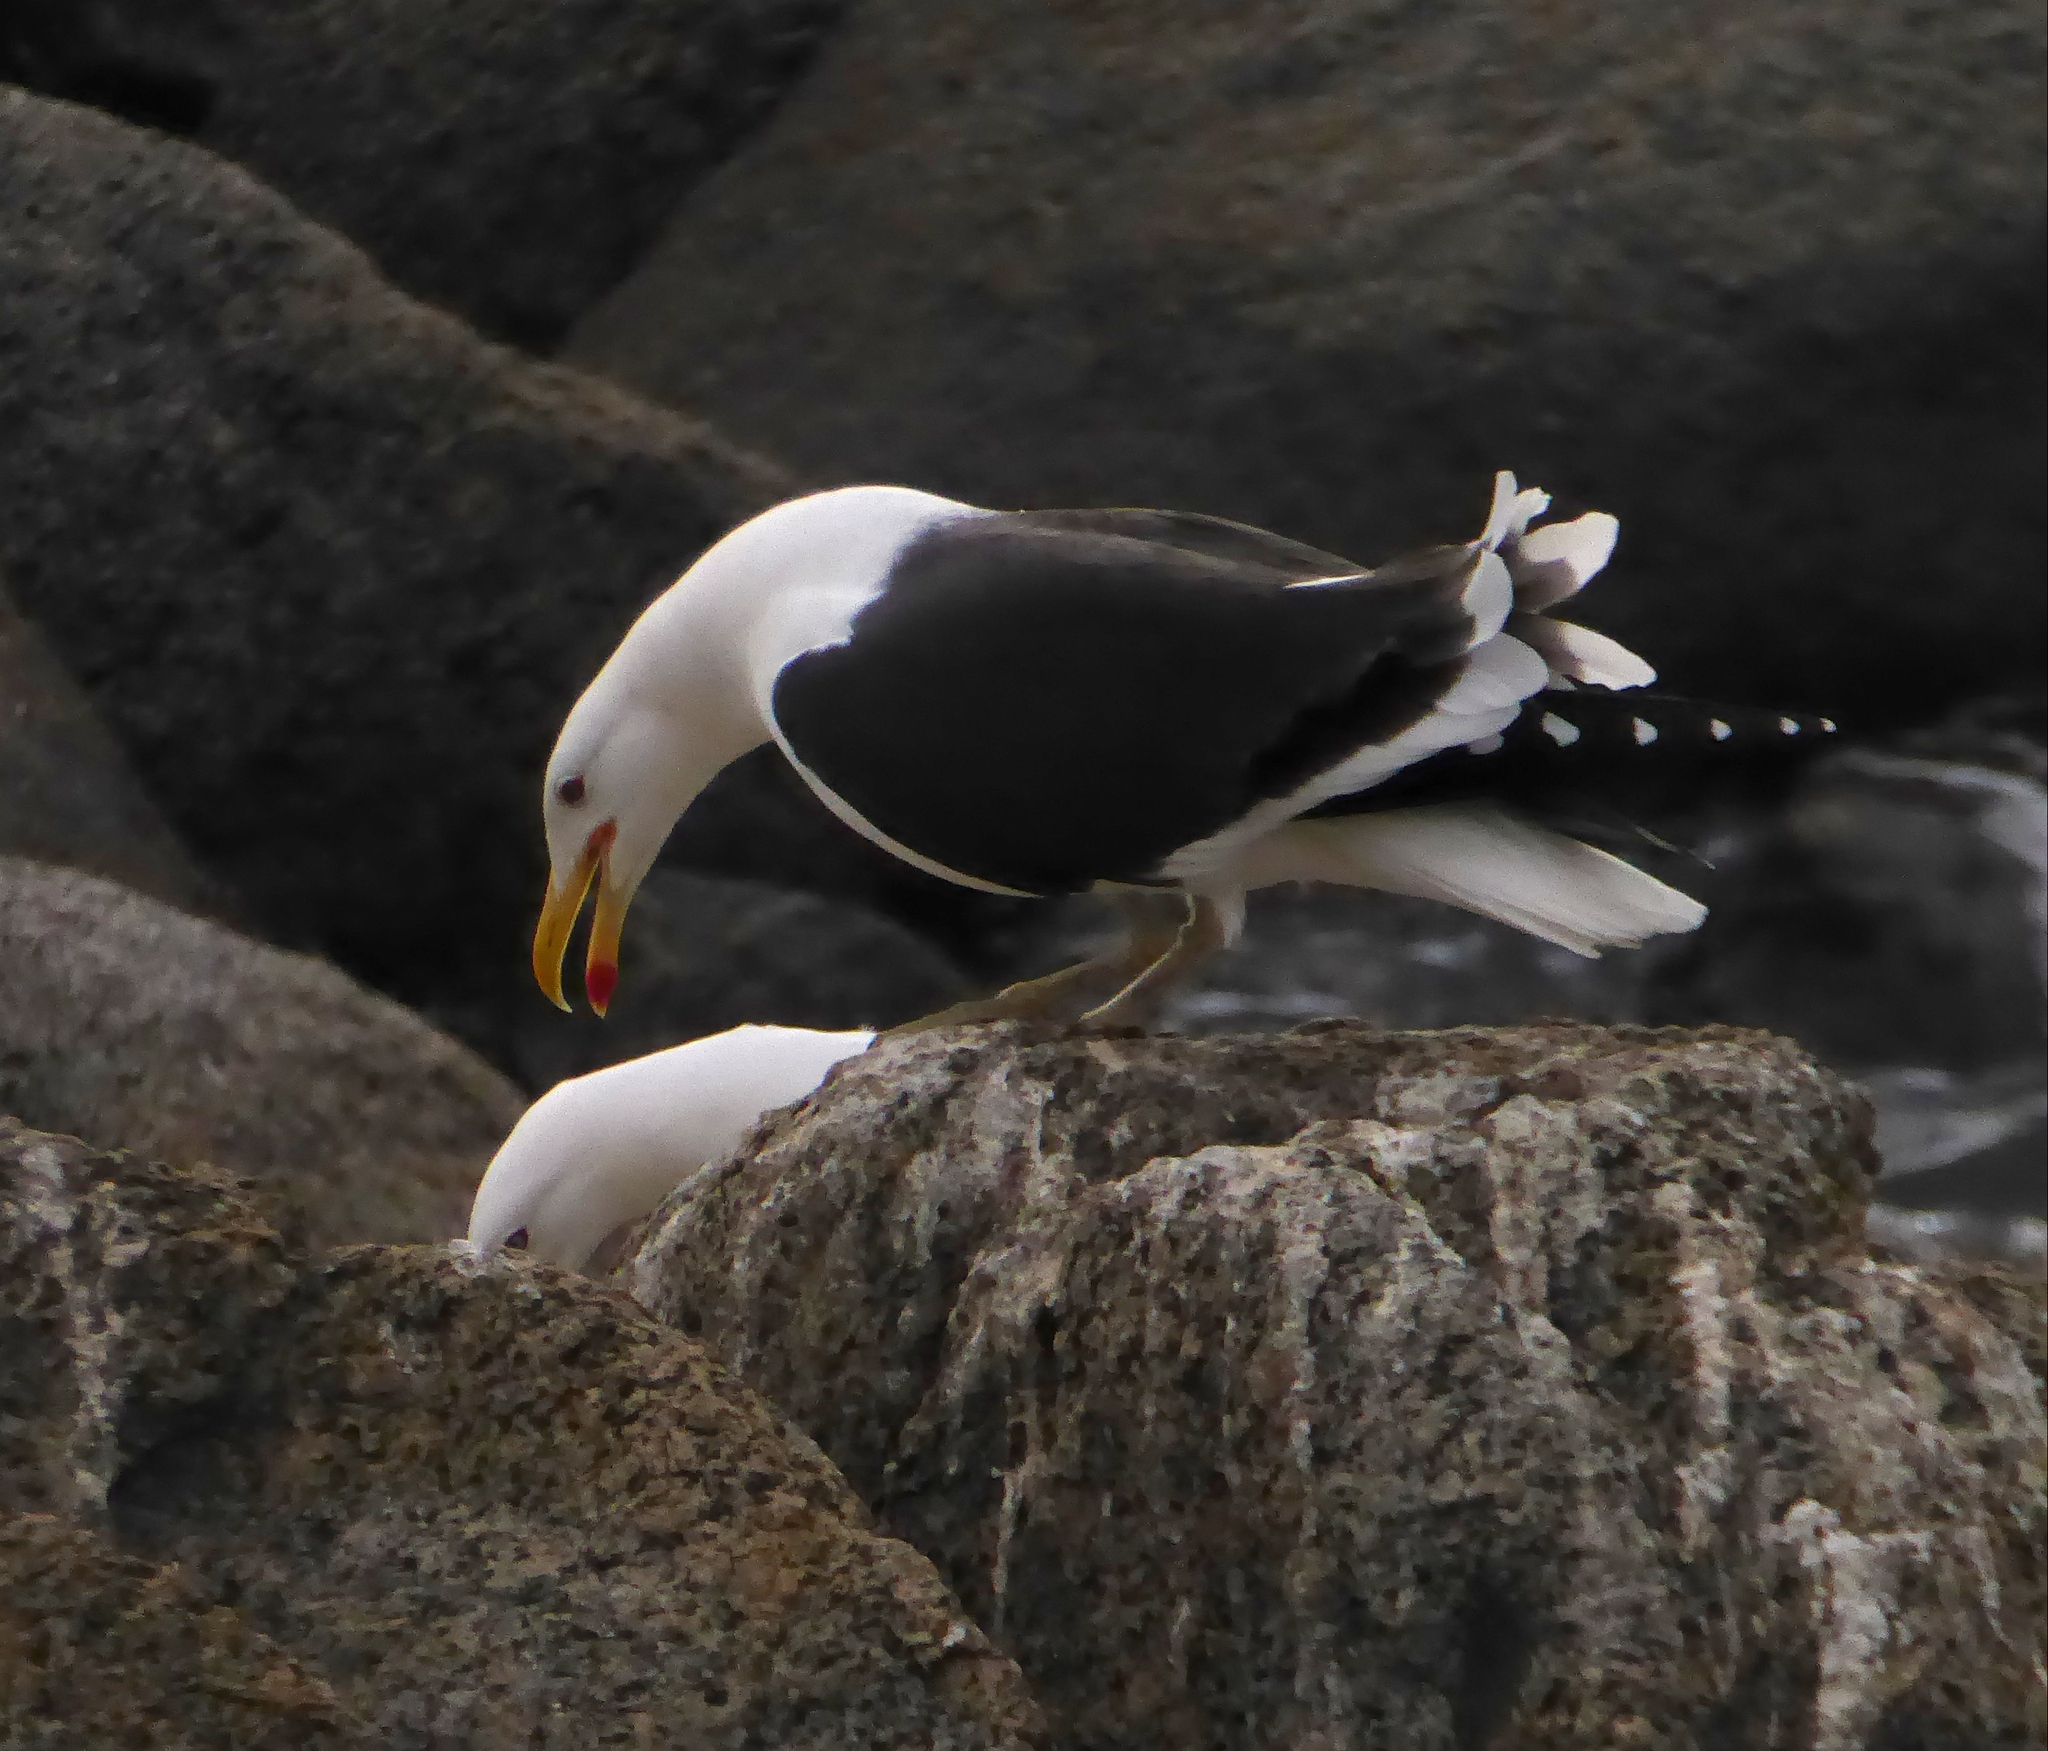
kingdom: Animalia
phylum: Chordata
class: Aves
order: Charadriiformes
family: Laridae
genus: Larus
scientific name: Larus dominicanus
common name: Kelp gull
